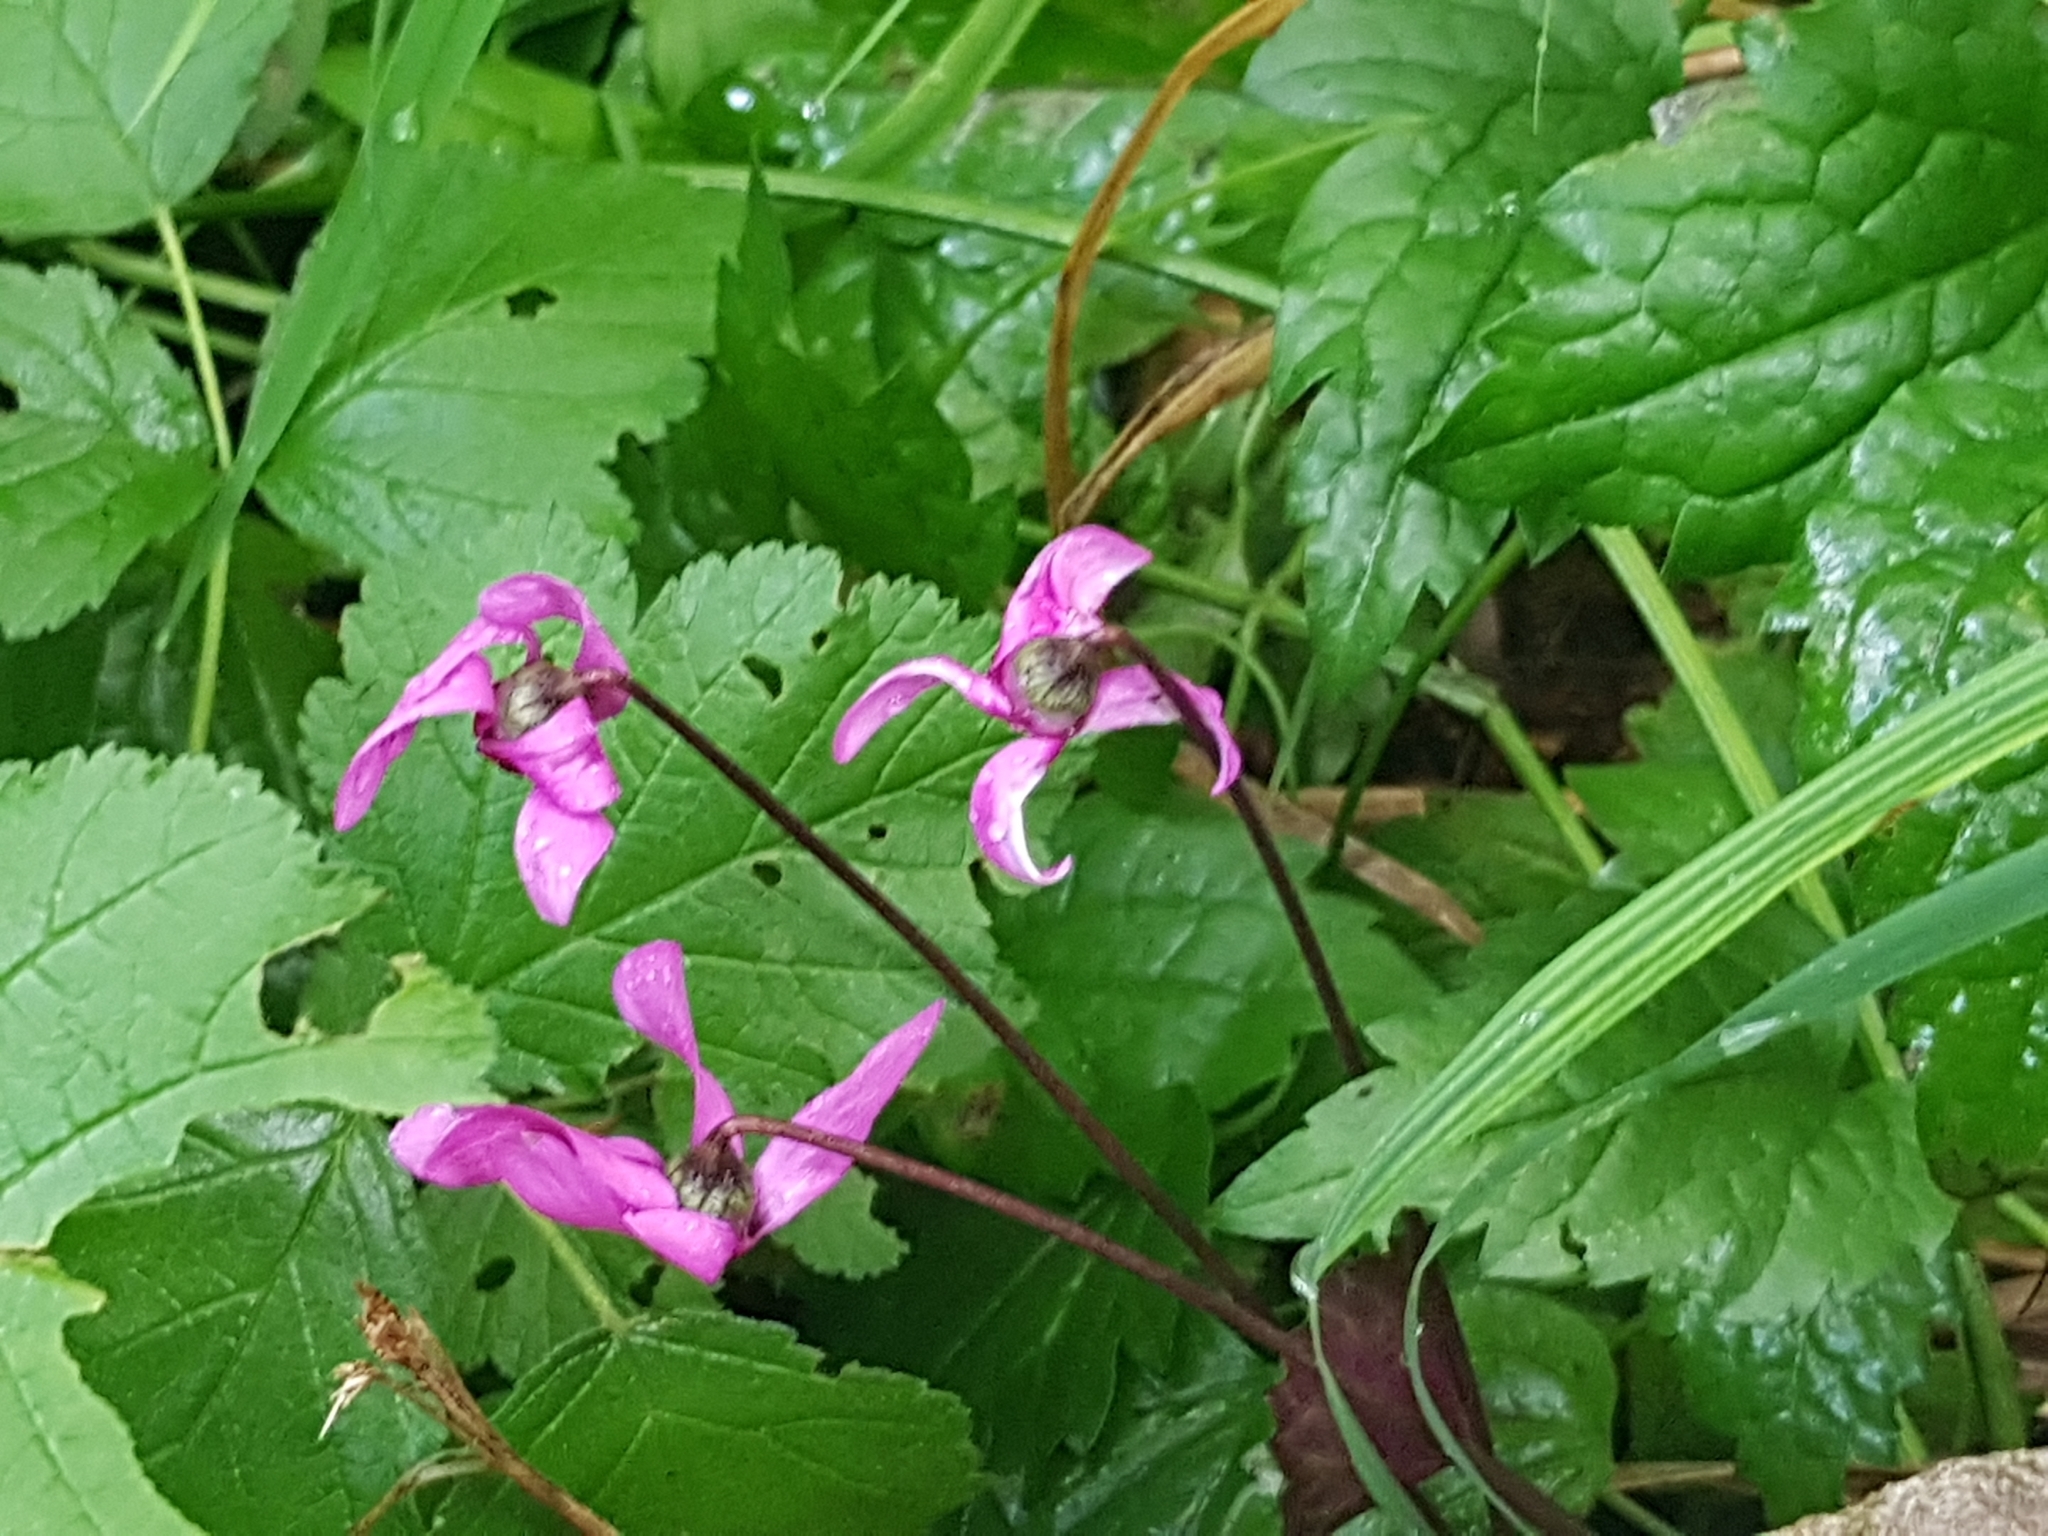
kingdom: Plantae
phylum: Tracheophyta
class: Magnoliopsida
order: Ericales
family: Primulaceae
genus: Cyclamen
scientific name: Cyclamen purpurascens
